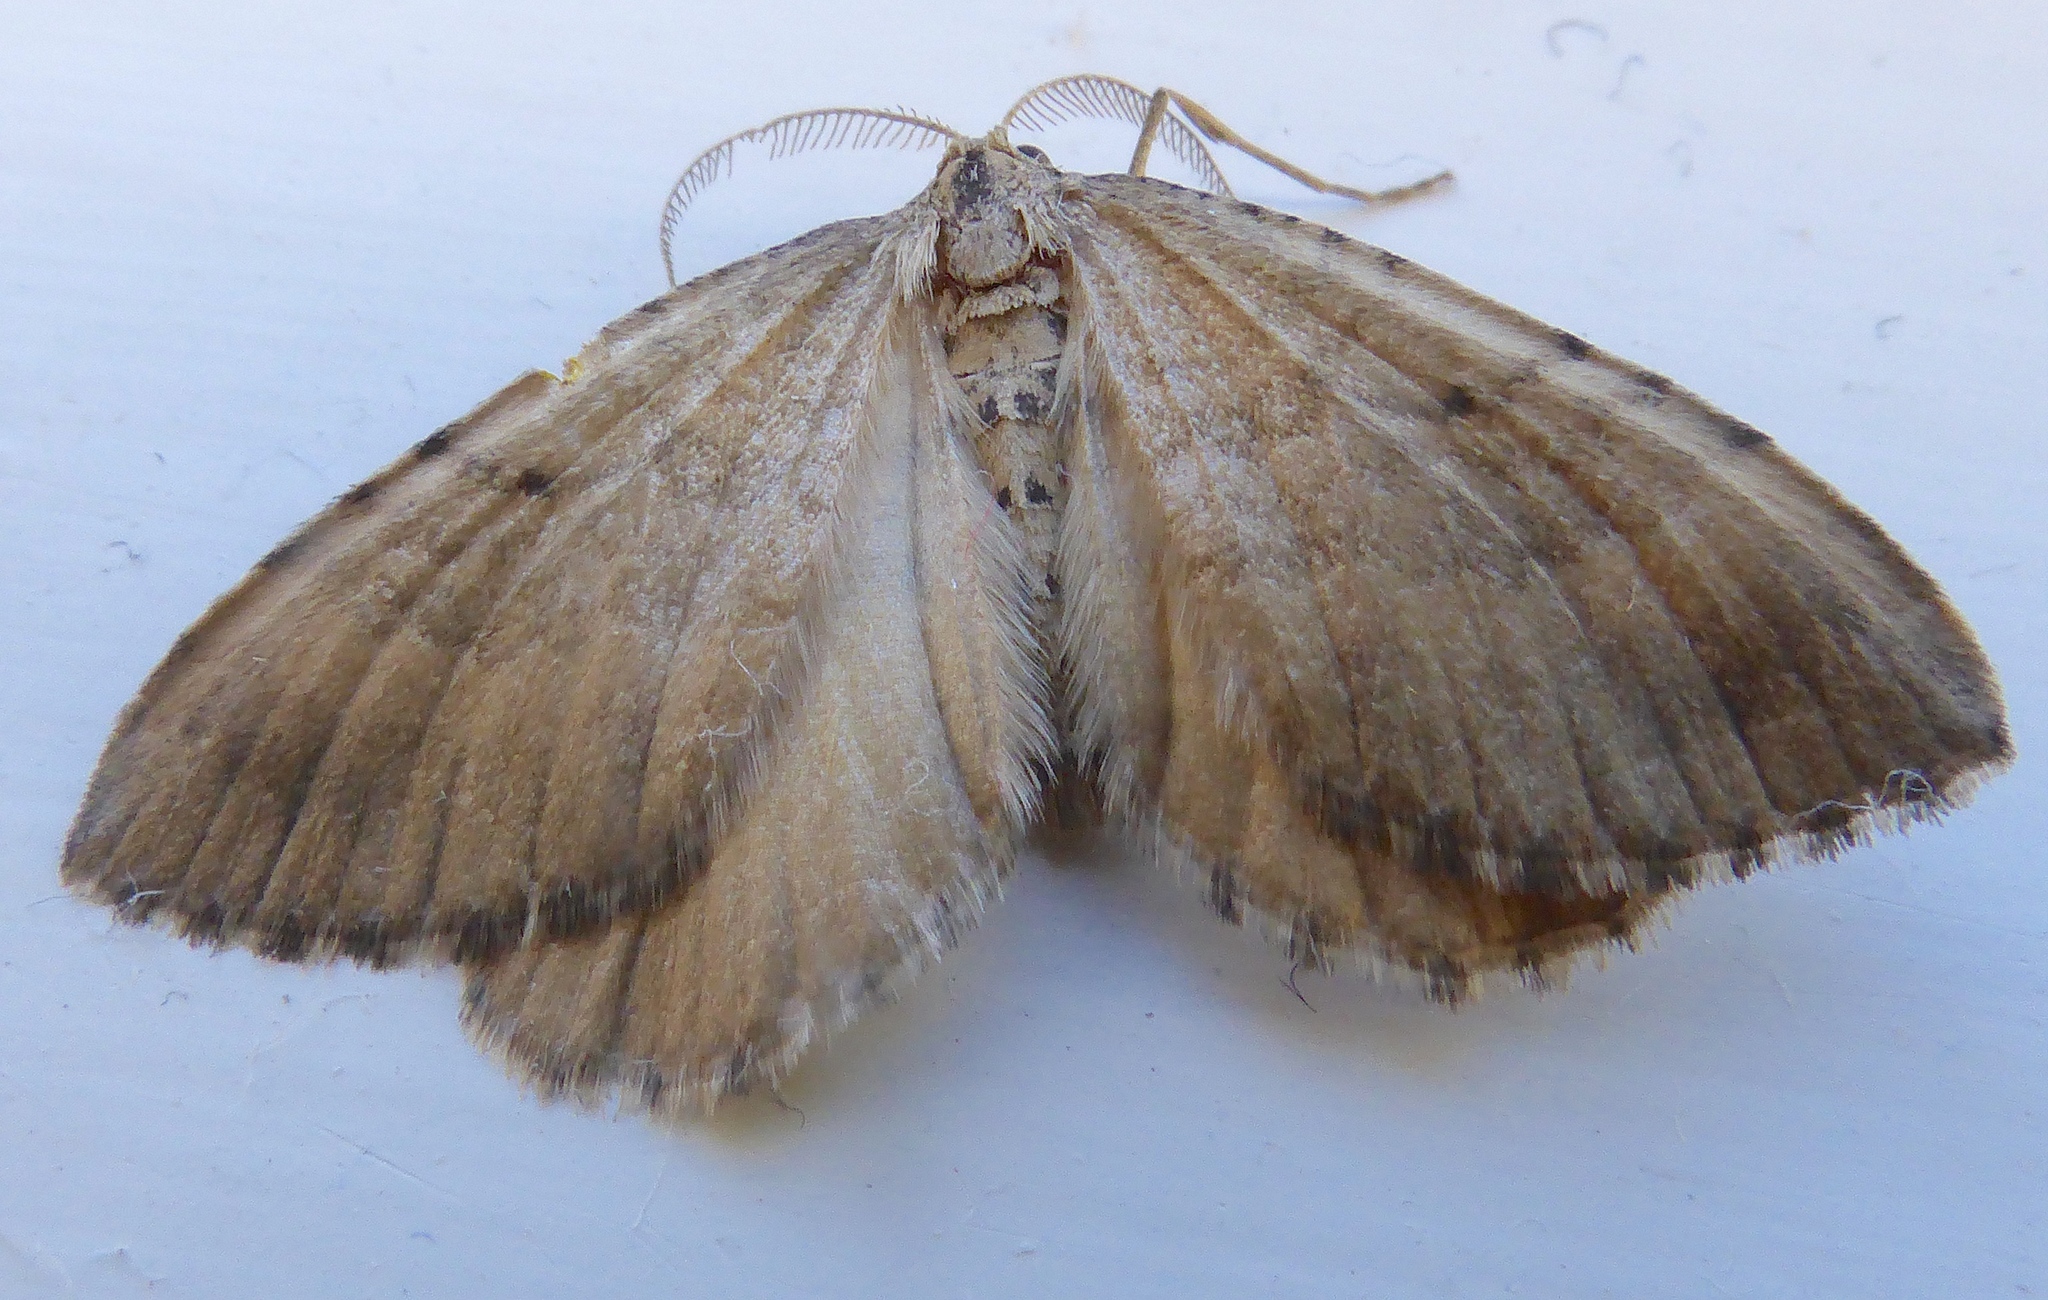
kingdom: Animalia
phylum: Arthropoda
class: Insecta
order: Lepidoptera
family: Geometridae
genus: Asaphodes
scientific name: Asaphodes aegrota
